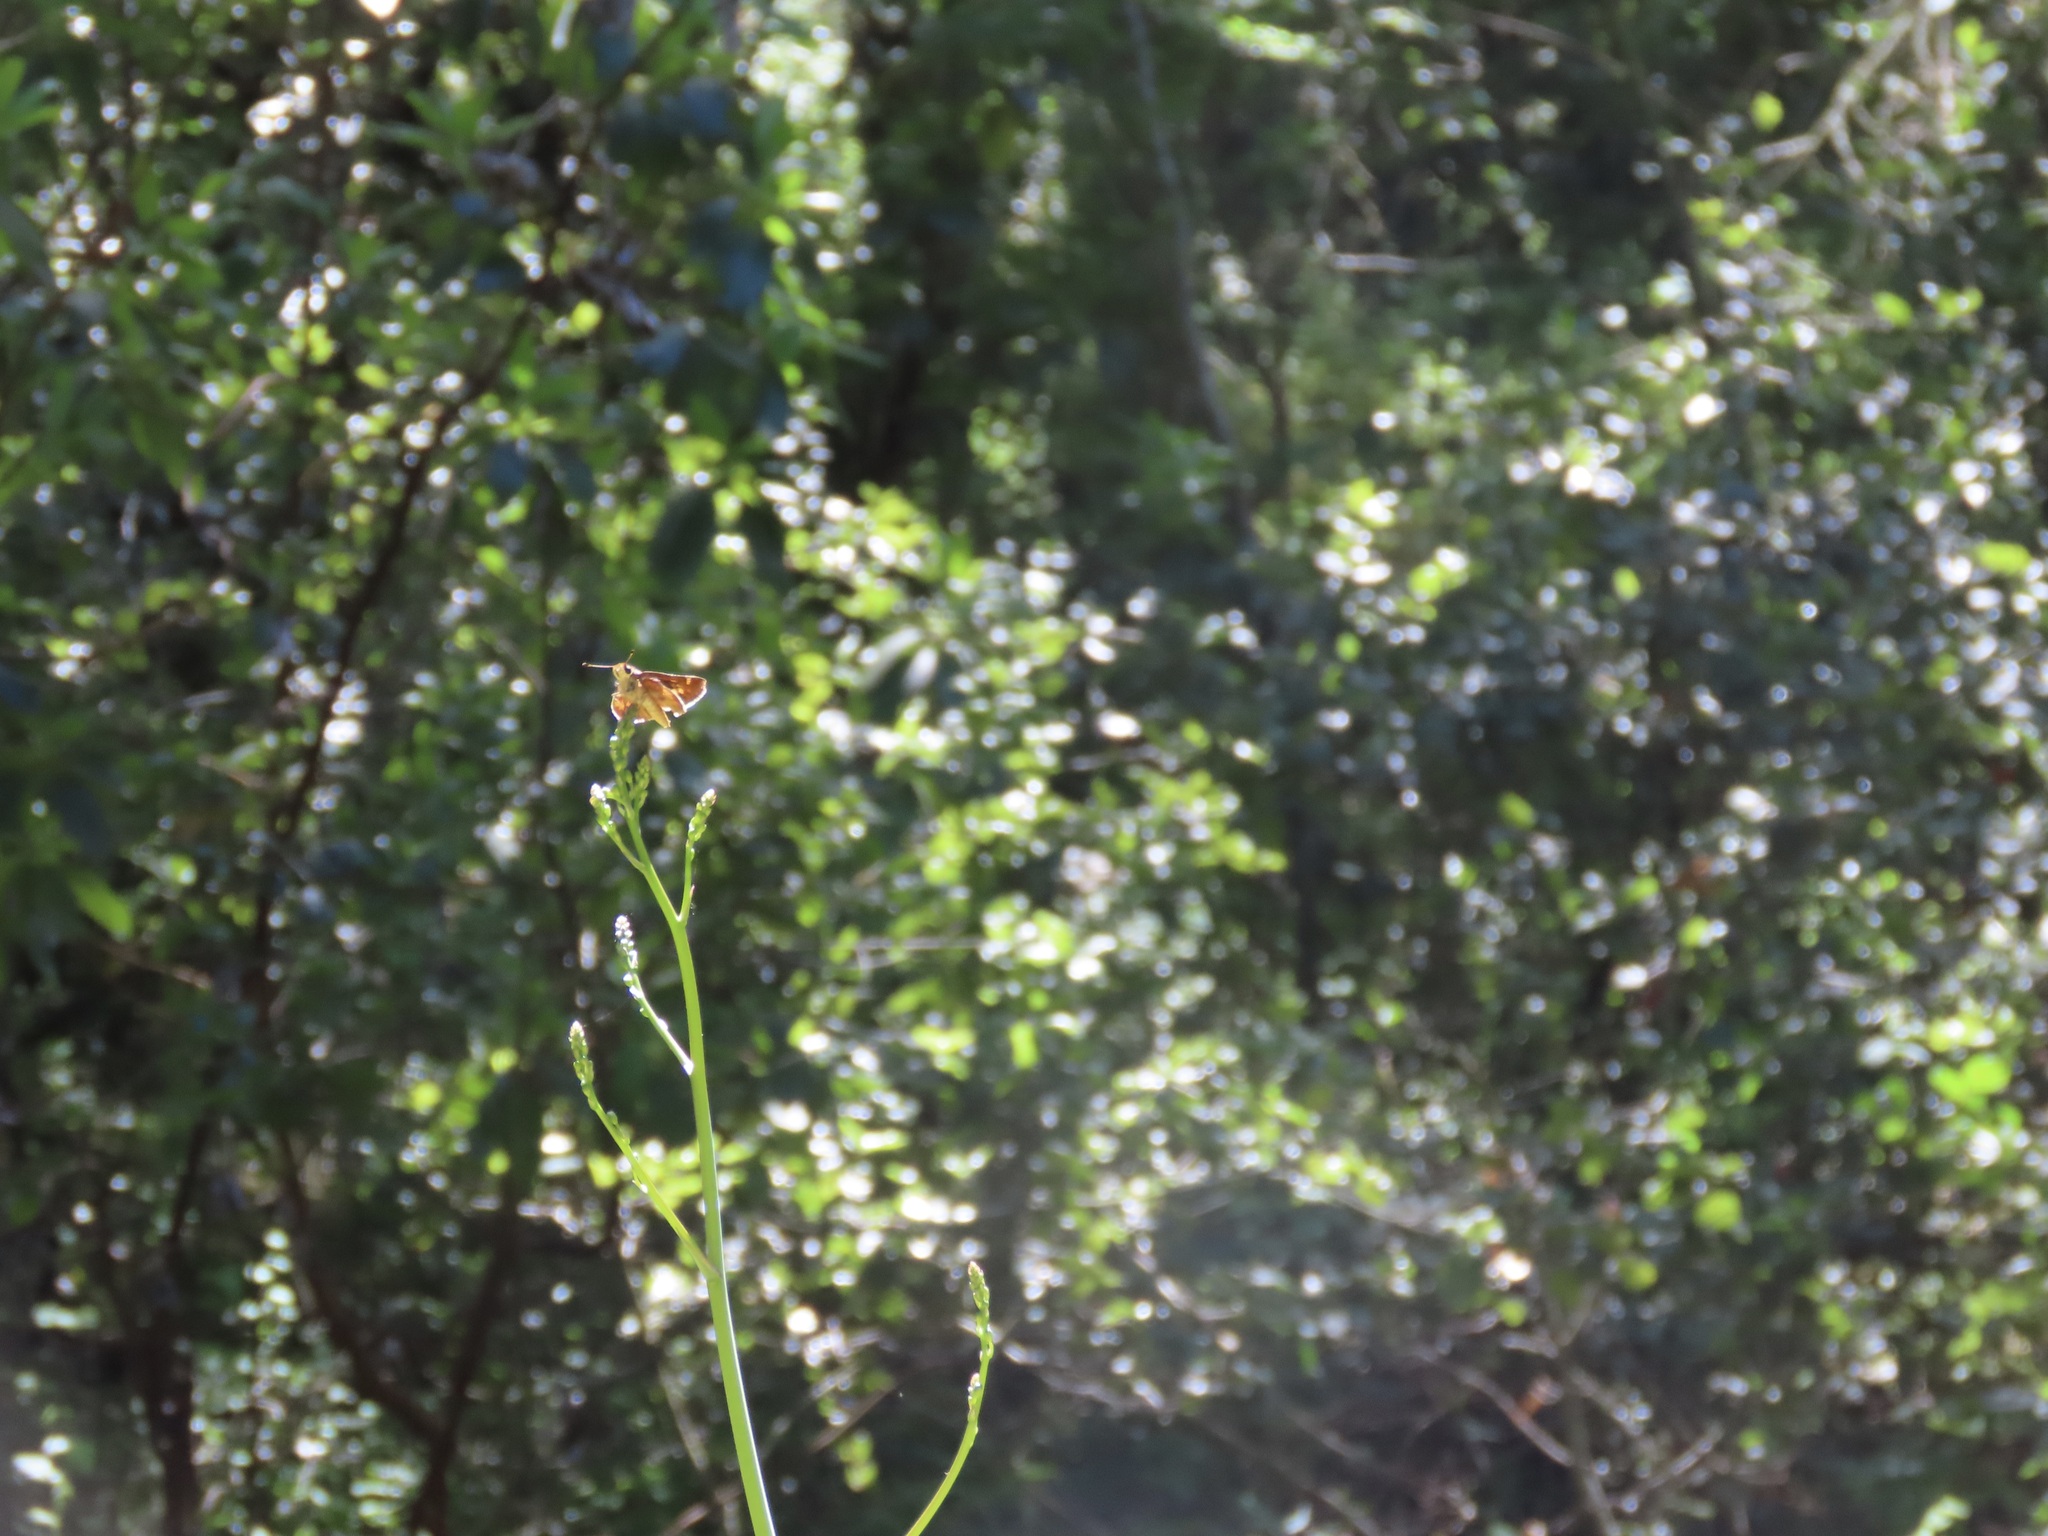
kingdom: Animalia
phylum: Arthropoda
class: Insecta
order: Lepidoptera
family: Hesperiidae
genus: Lon
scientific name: Lon melane
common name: Umber skipper
